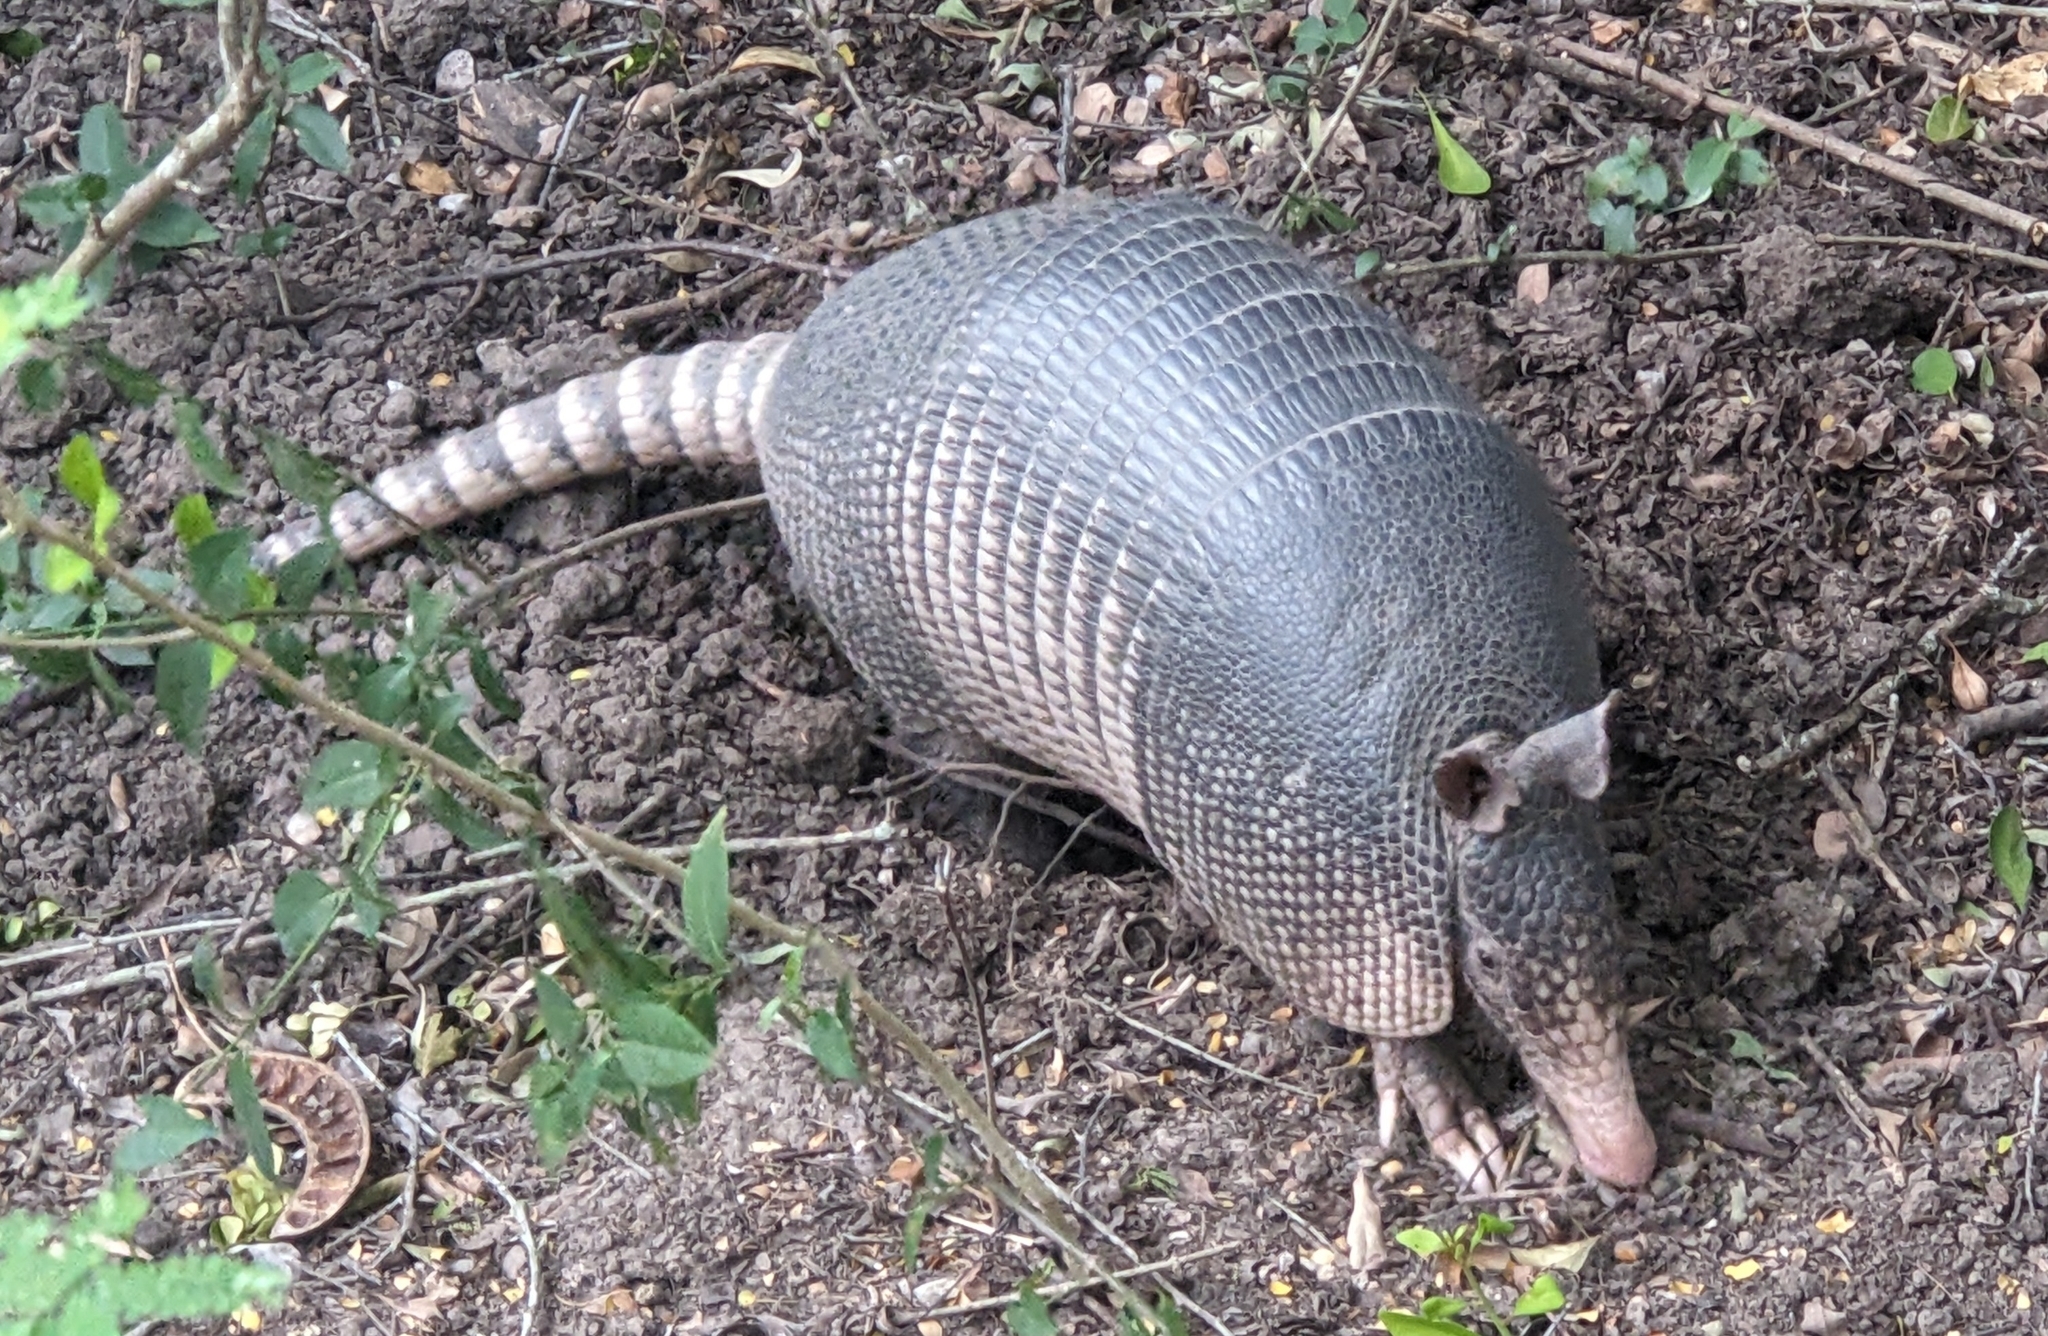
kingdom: Animalia
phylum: Chordata
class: Mammalia
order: Cingulata
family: Dasypodidae
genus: Dasypus
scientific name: Dasypus novemcinctus
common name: Nine-banded armadillo
